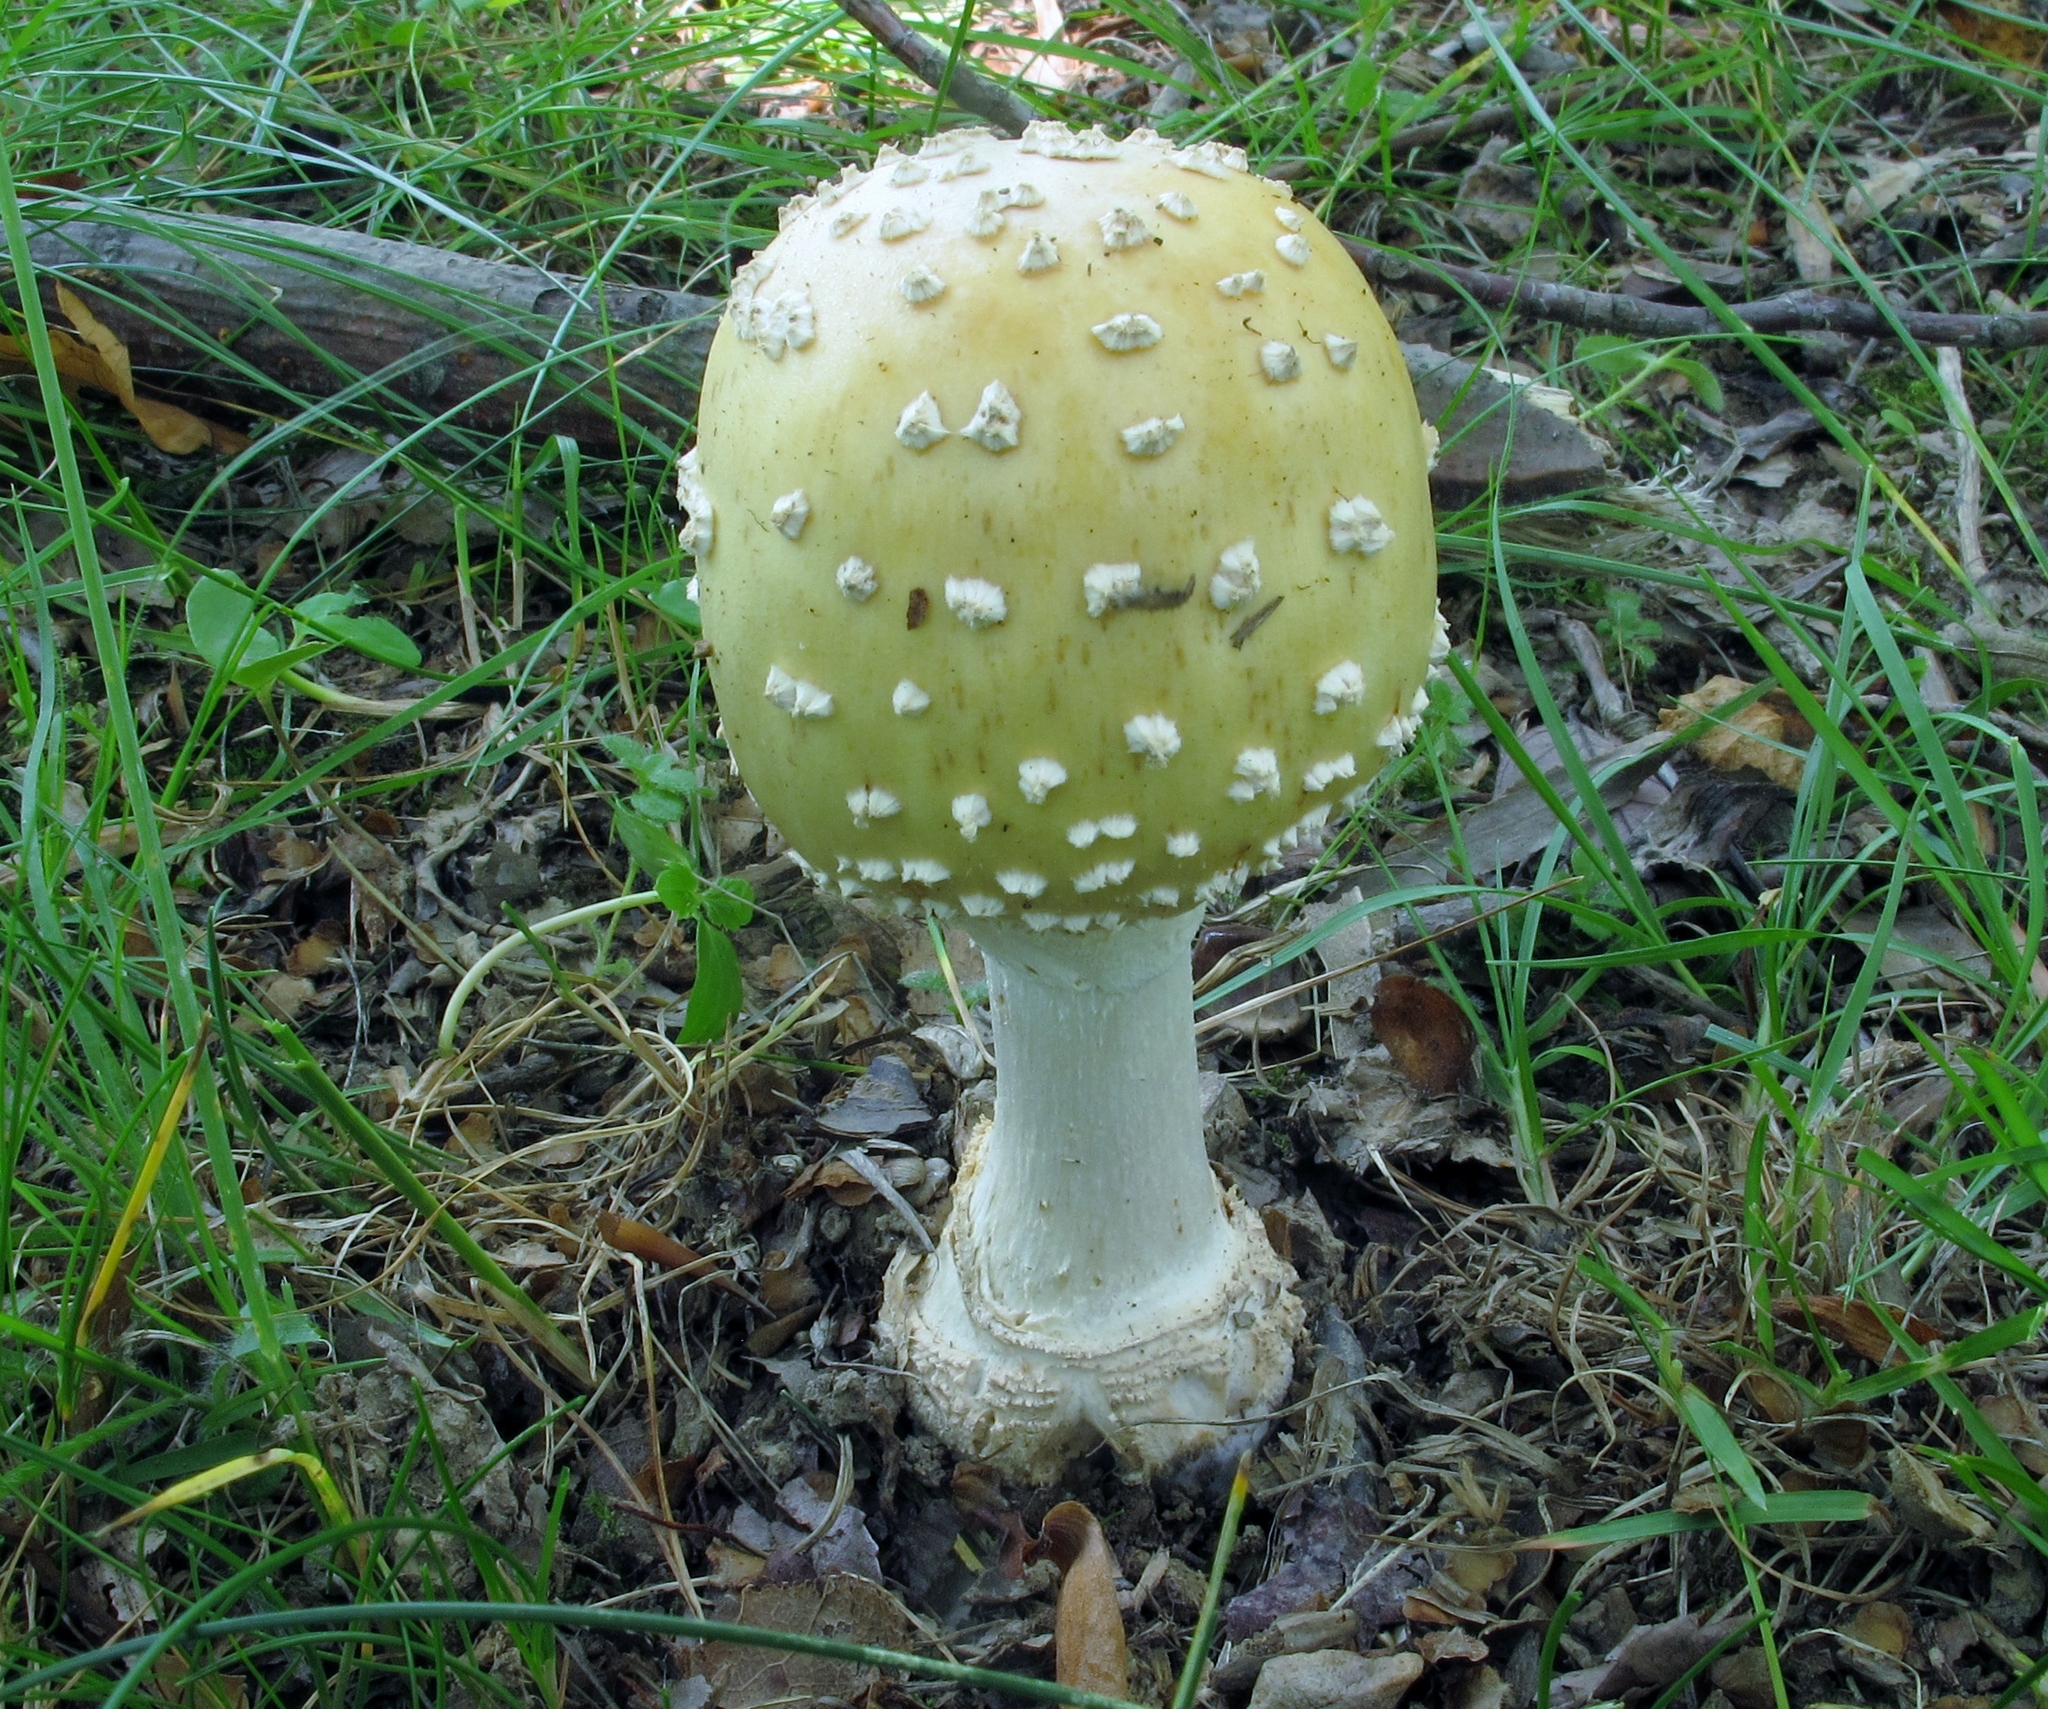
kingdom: Fungi
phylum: Basidiomycota
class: Agaricomycetes
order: Agaricales
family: Amanitaceae
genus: Amanita
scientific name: Amanita velatipes
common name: Great funnel-veil amanita
